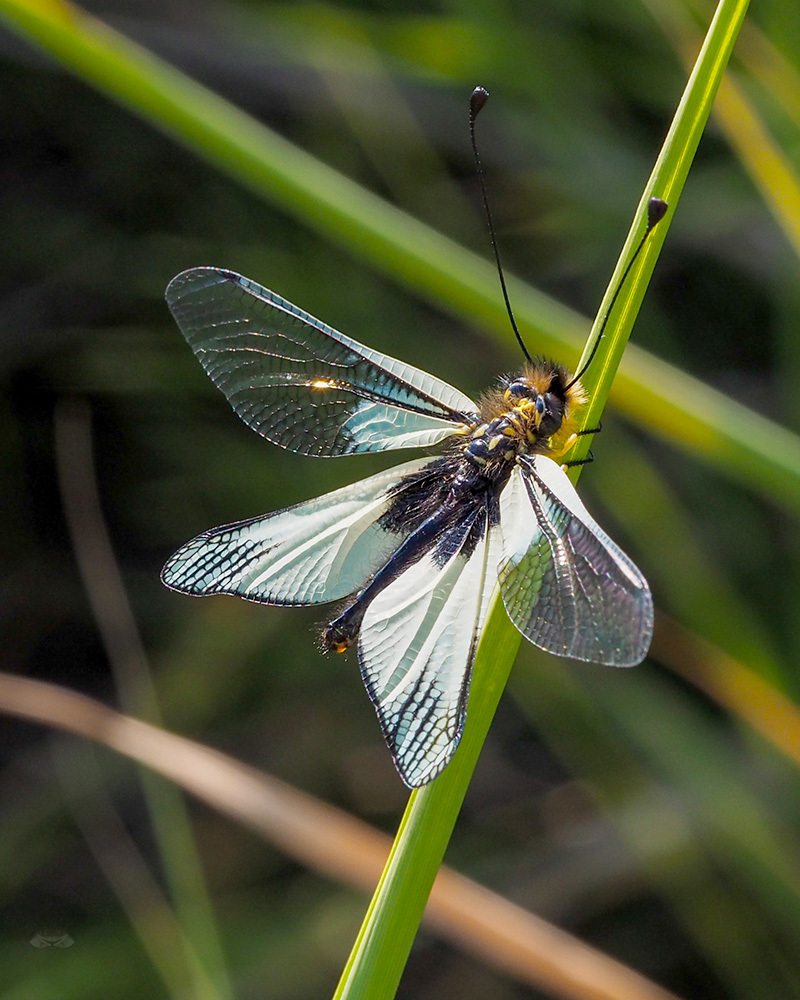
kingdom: Animalia
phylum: Arthropoda
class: Insecta
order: Neuroptera
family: Ascalaphidae
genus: Libelloides
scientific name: Libelloides latinus
